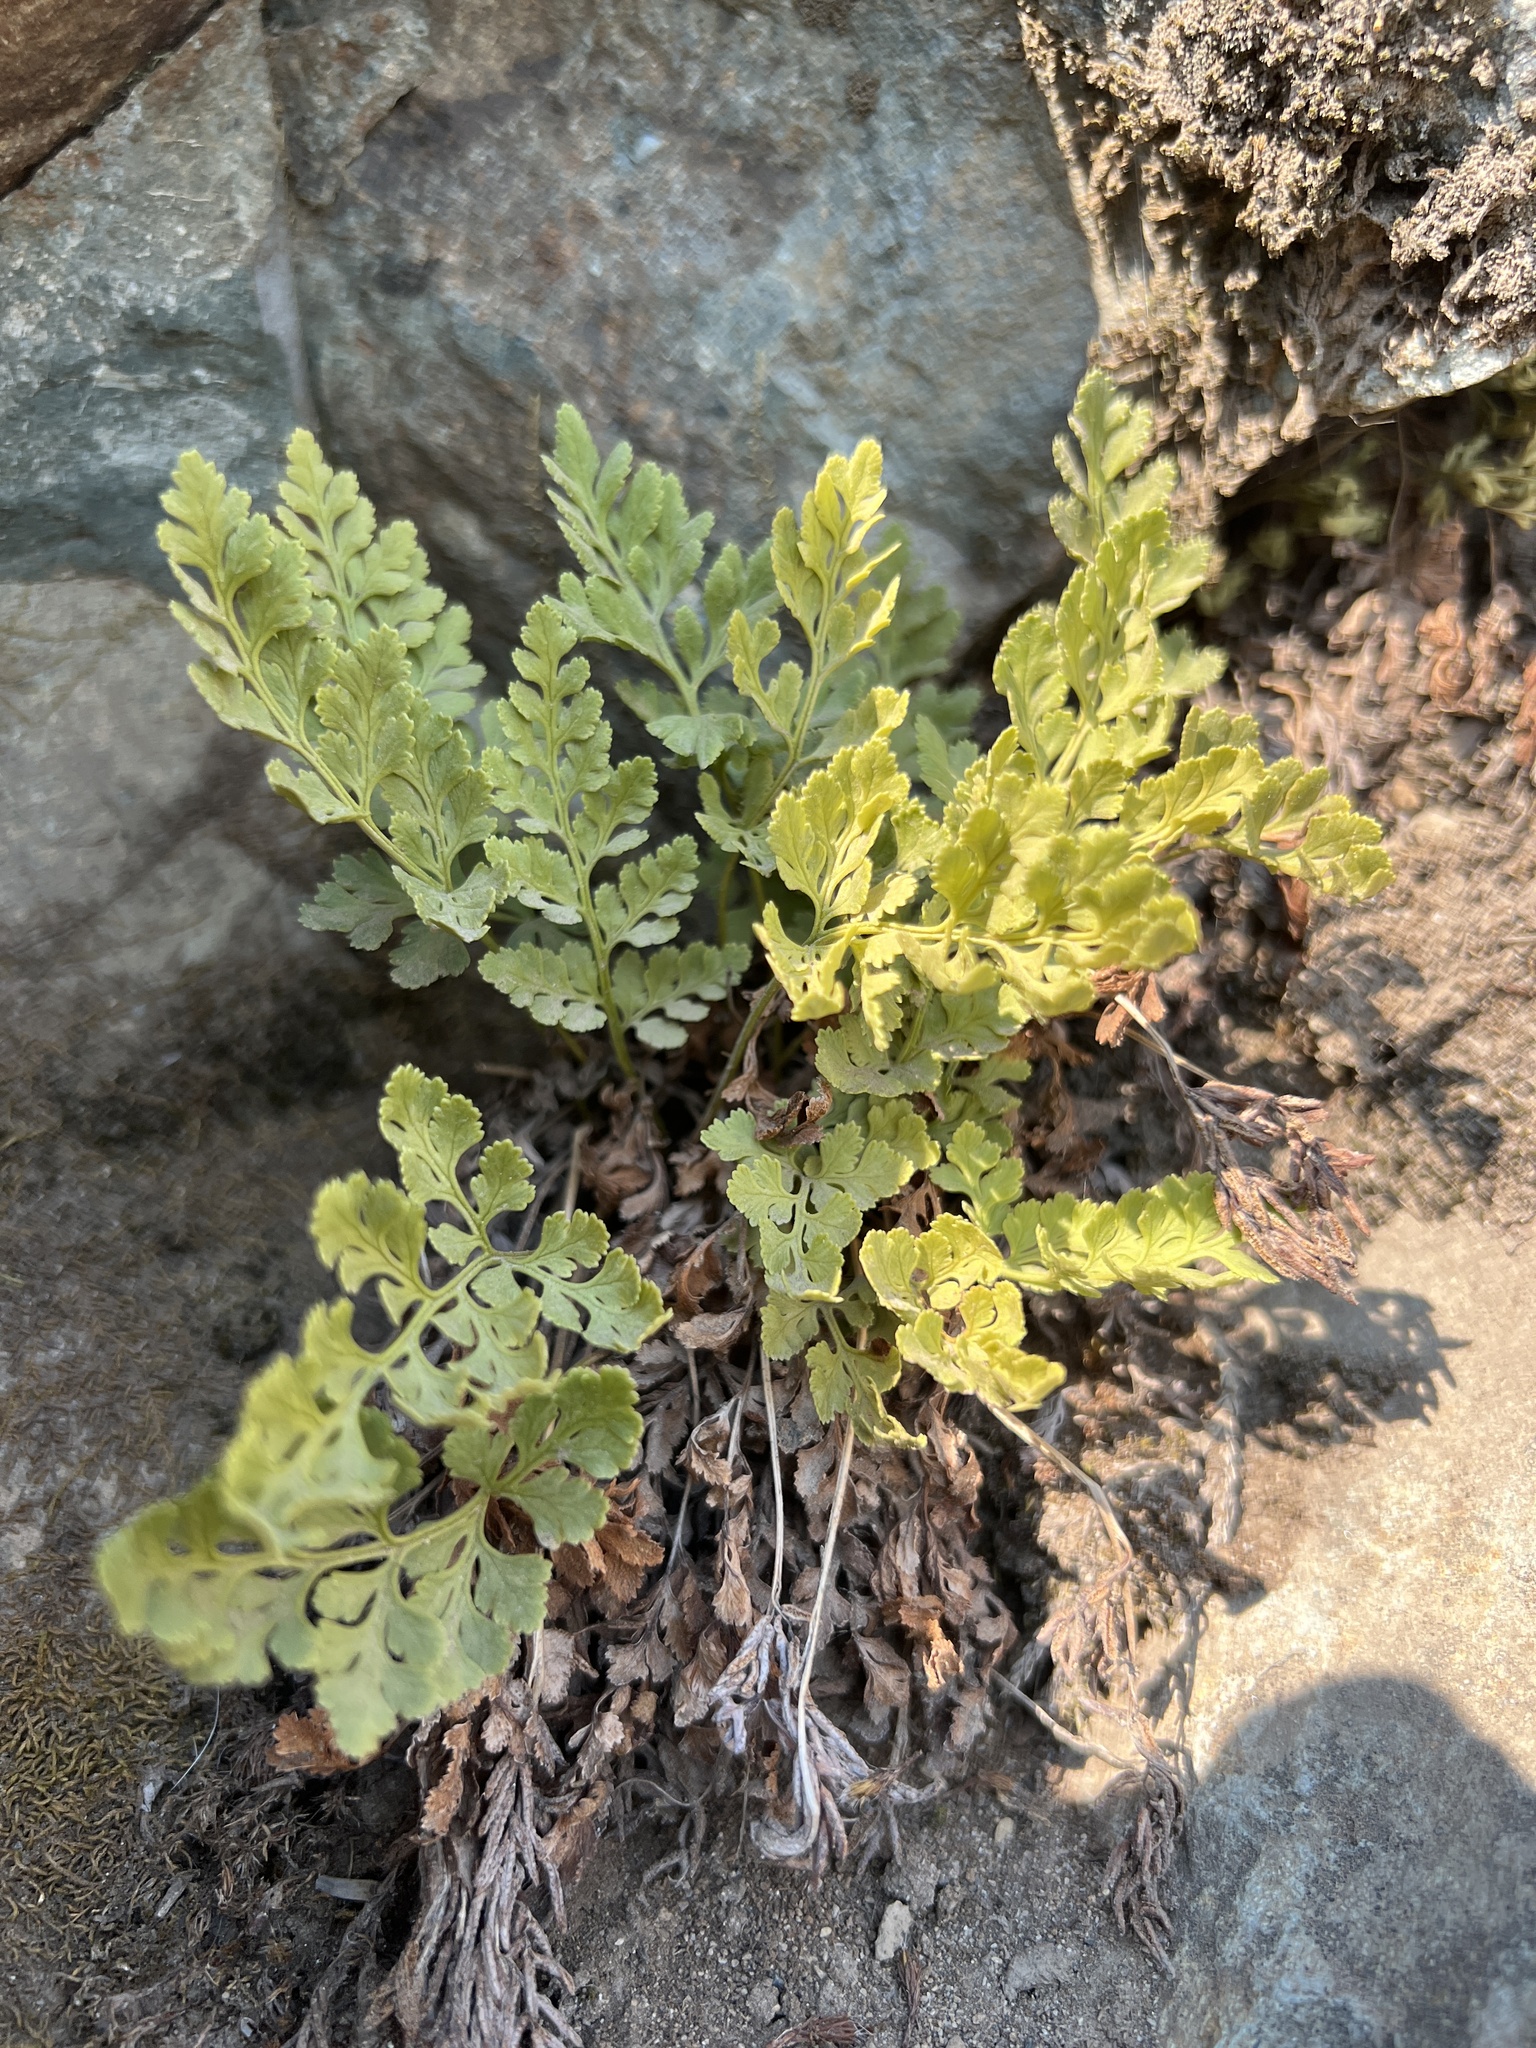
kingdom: Plantae
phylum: Tracheophyta
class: Polypodiopsida
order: Polypodiales
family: Pteridaceae
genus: Cryptogramma
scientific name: Cryptogramma acrostichoides
